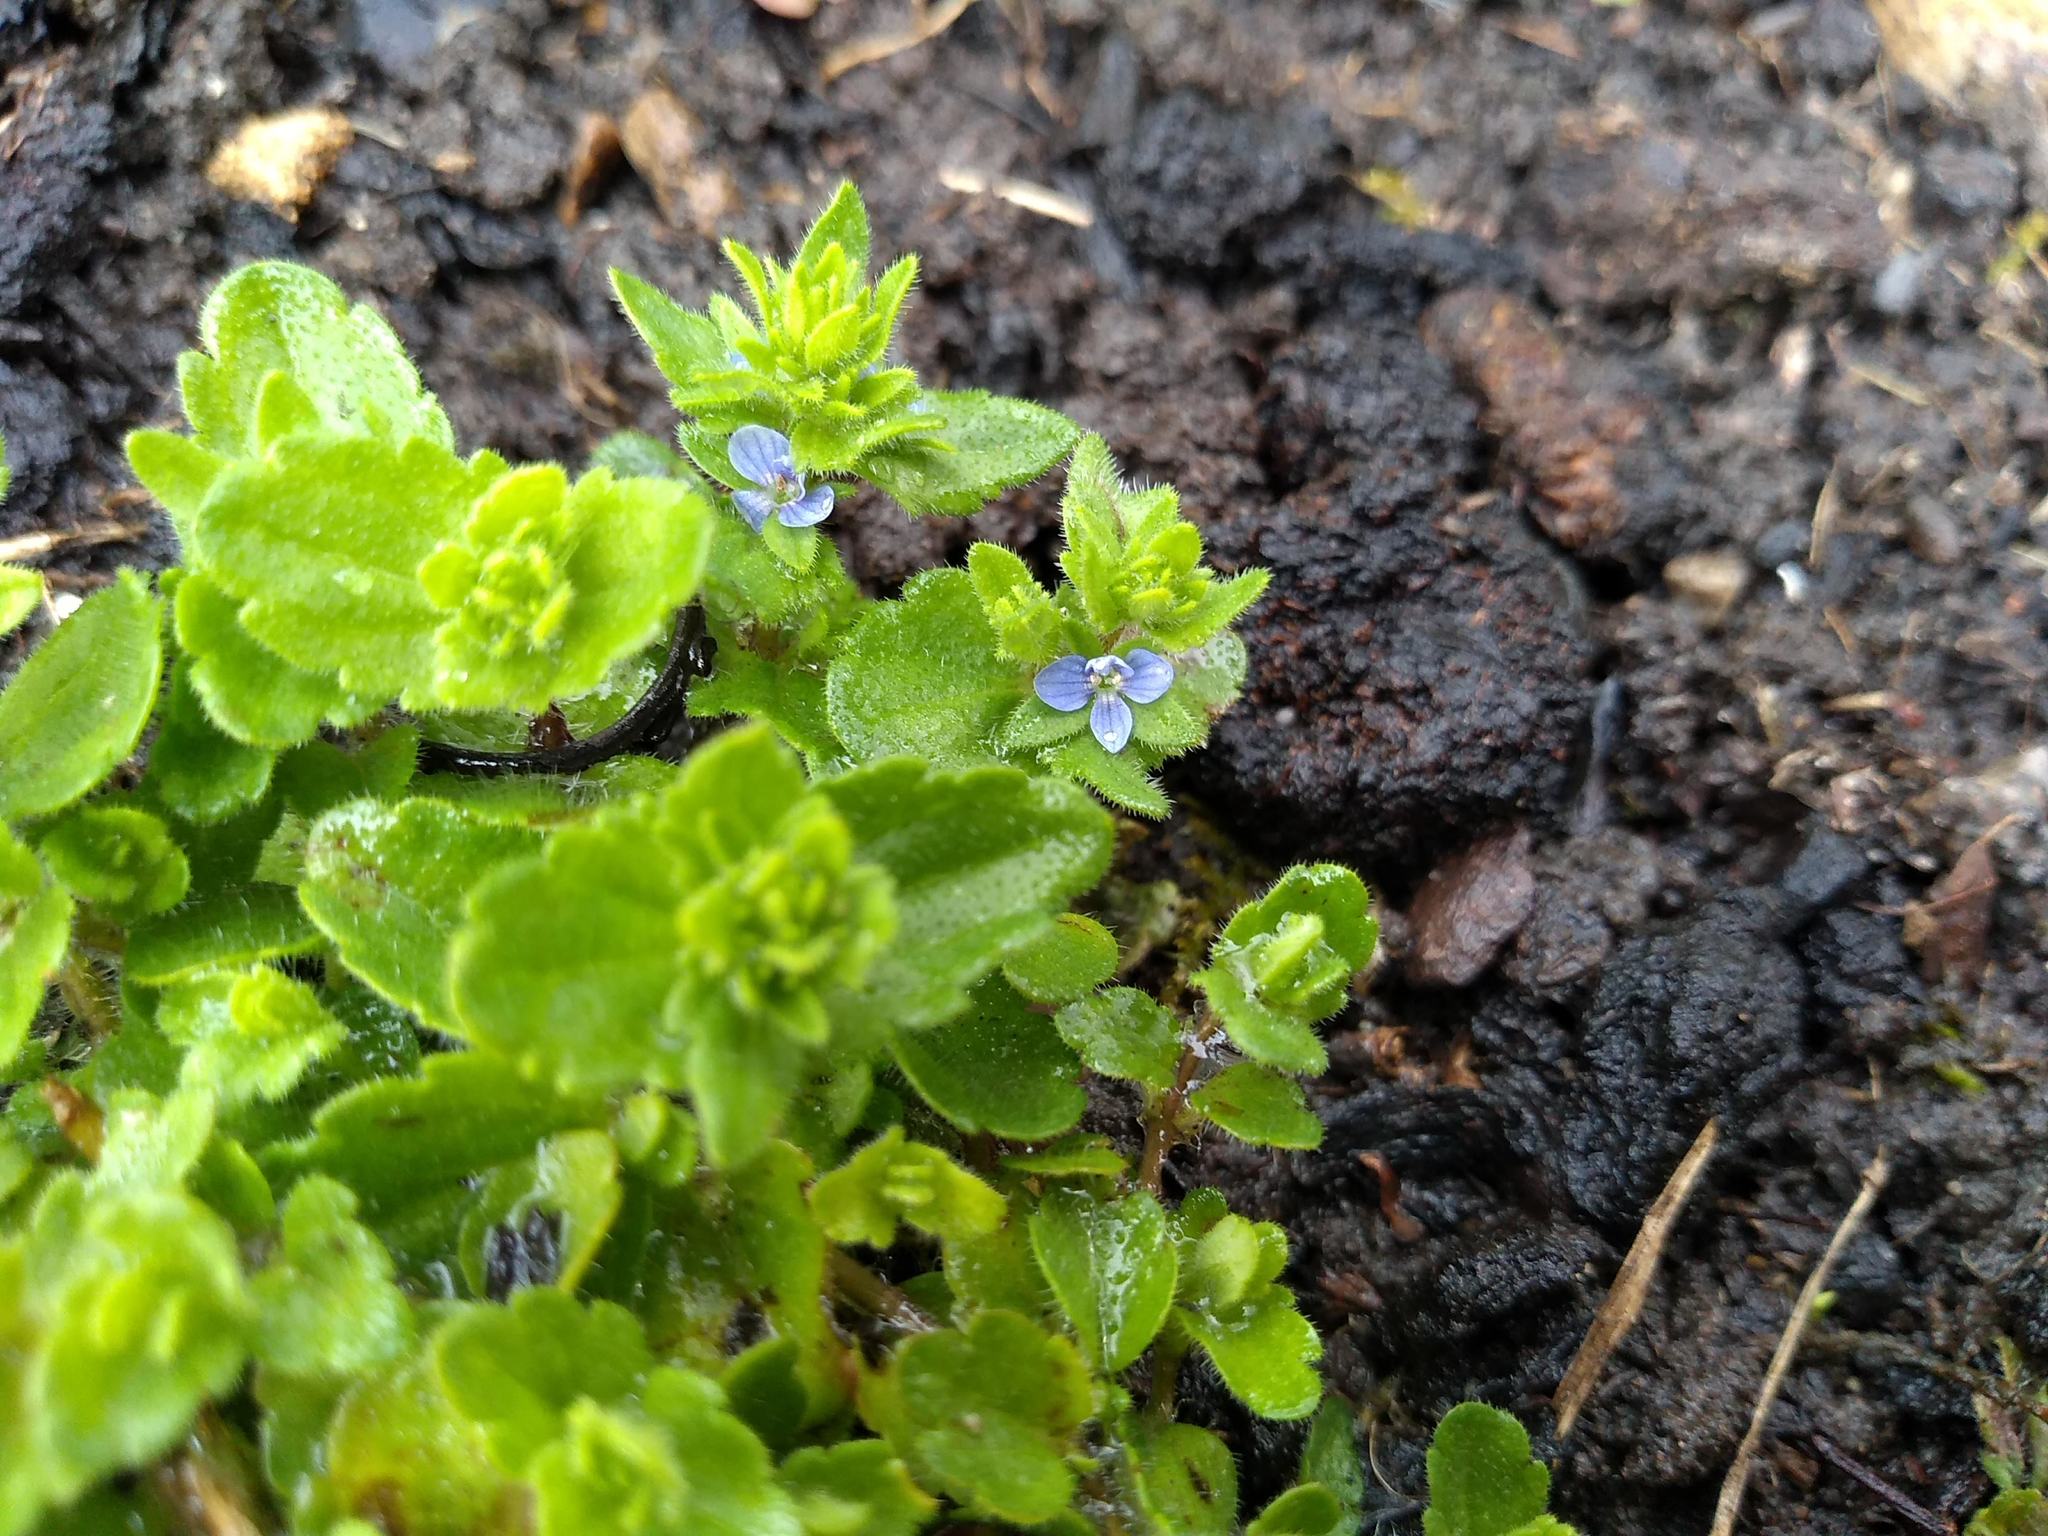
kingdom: Plantae
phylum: Tracheophyta
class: Magnoliopsida
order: Lamiales
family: Plantaginaceae
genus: Veronica
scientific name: Veronica arvensis
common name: Corn speedwell
